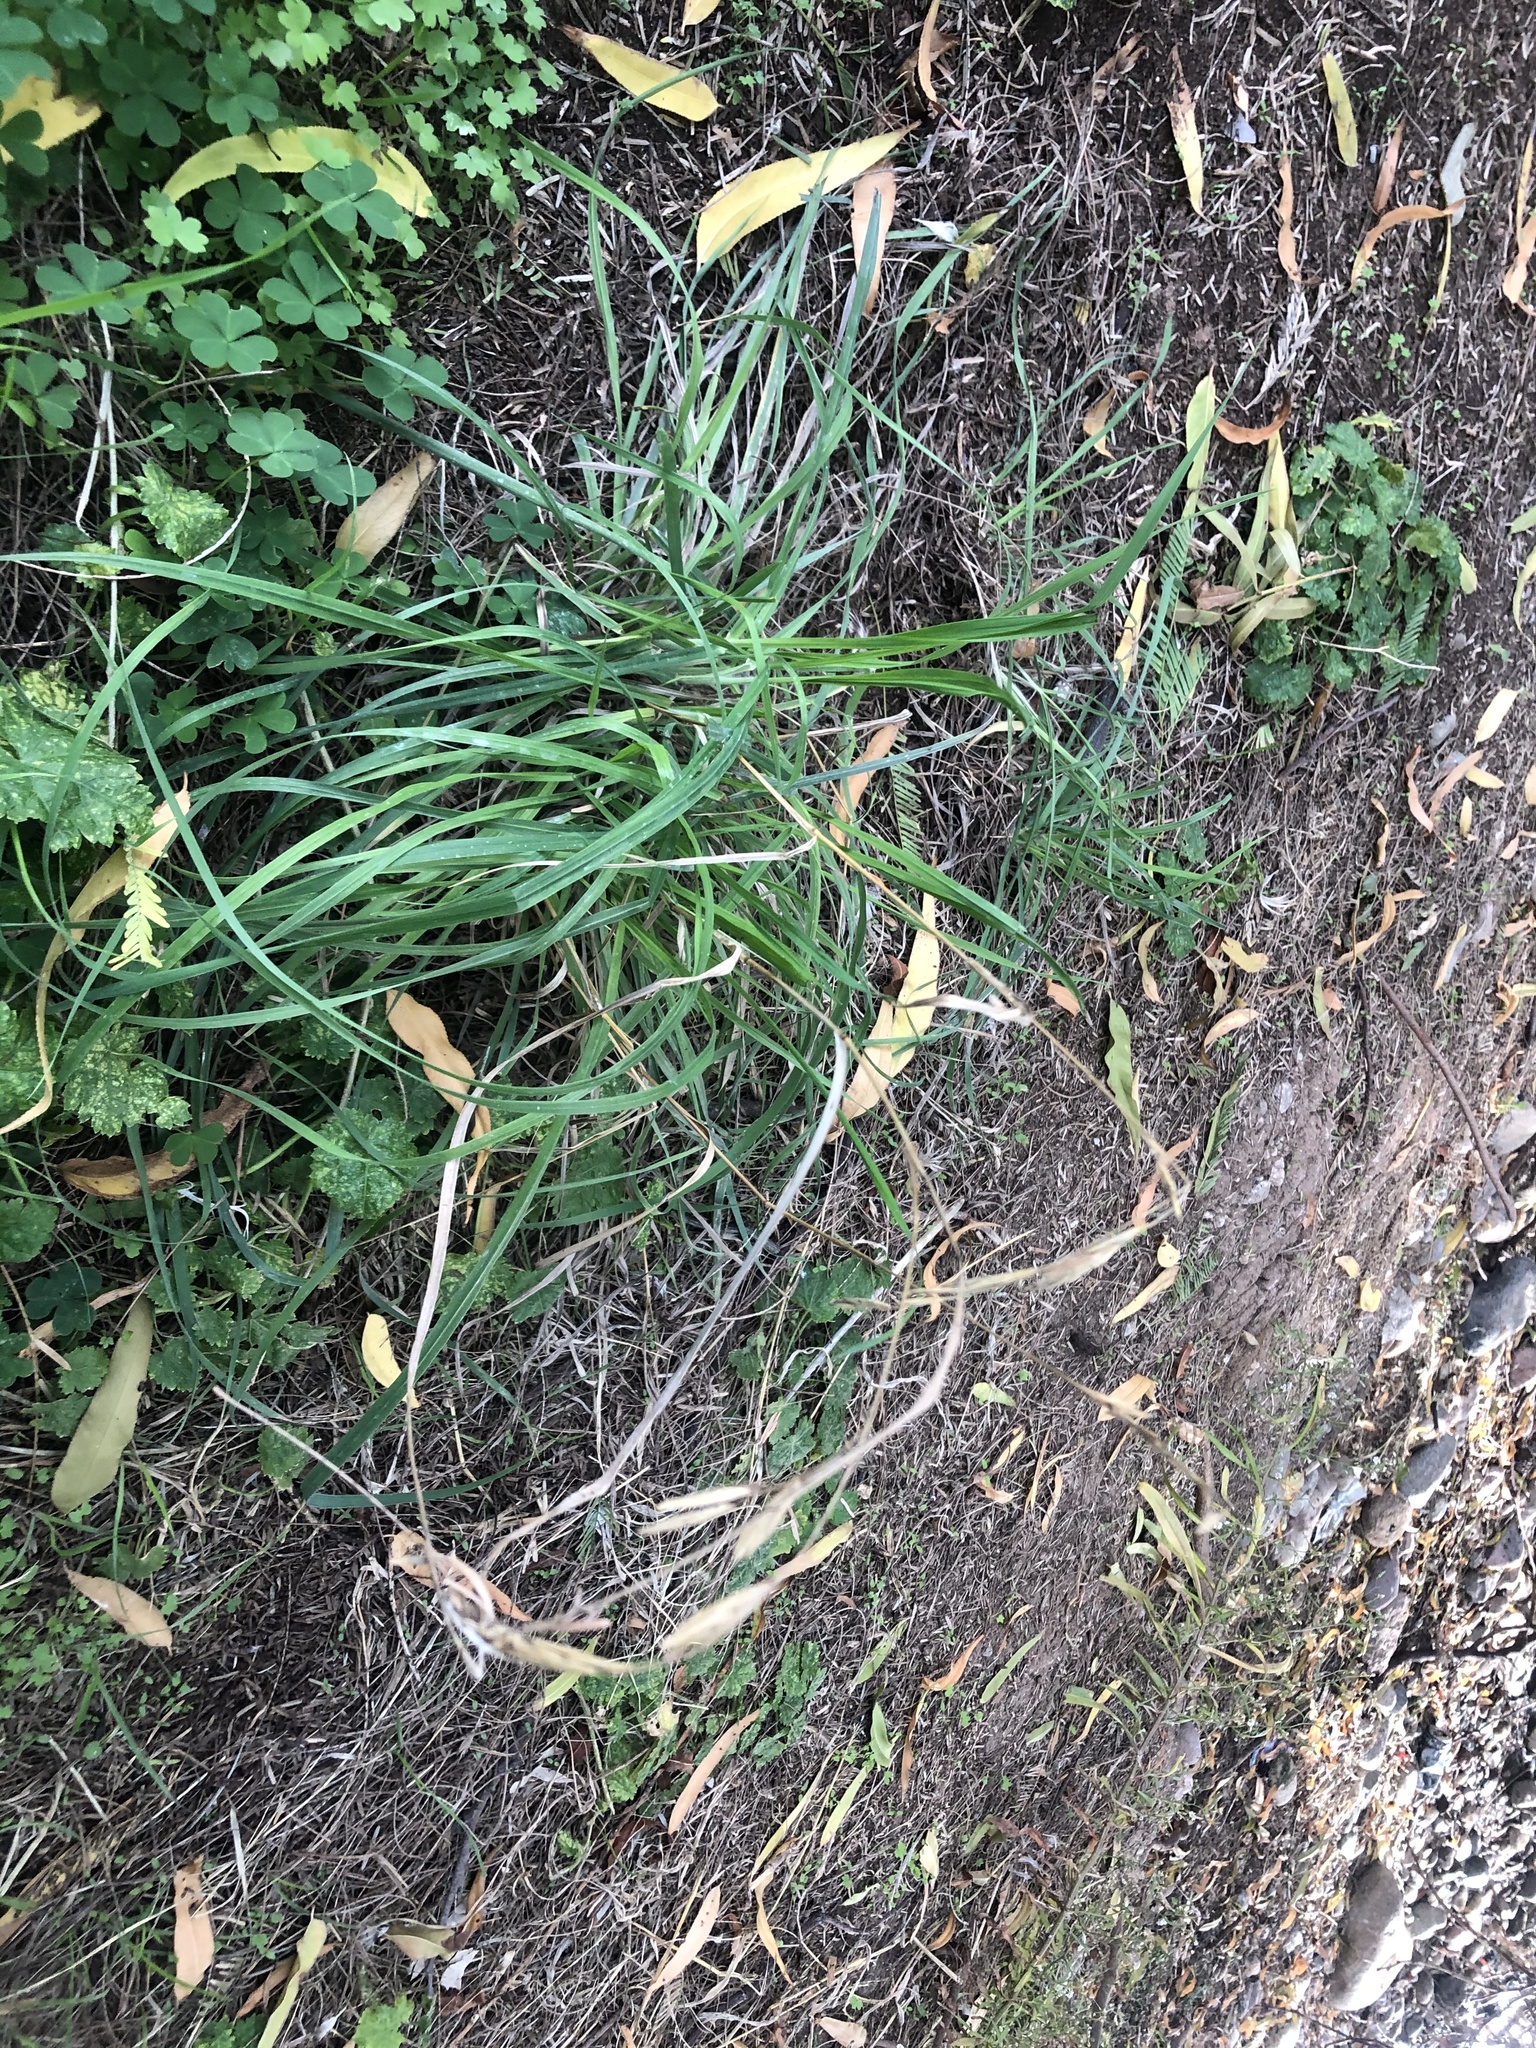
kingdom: Plantae
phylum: Tracheophyta
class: Liliopsida
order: Poales
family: Poaceae
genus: Bromus
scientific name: Bromus catharticus
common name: Rescuegrass
